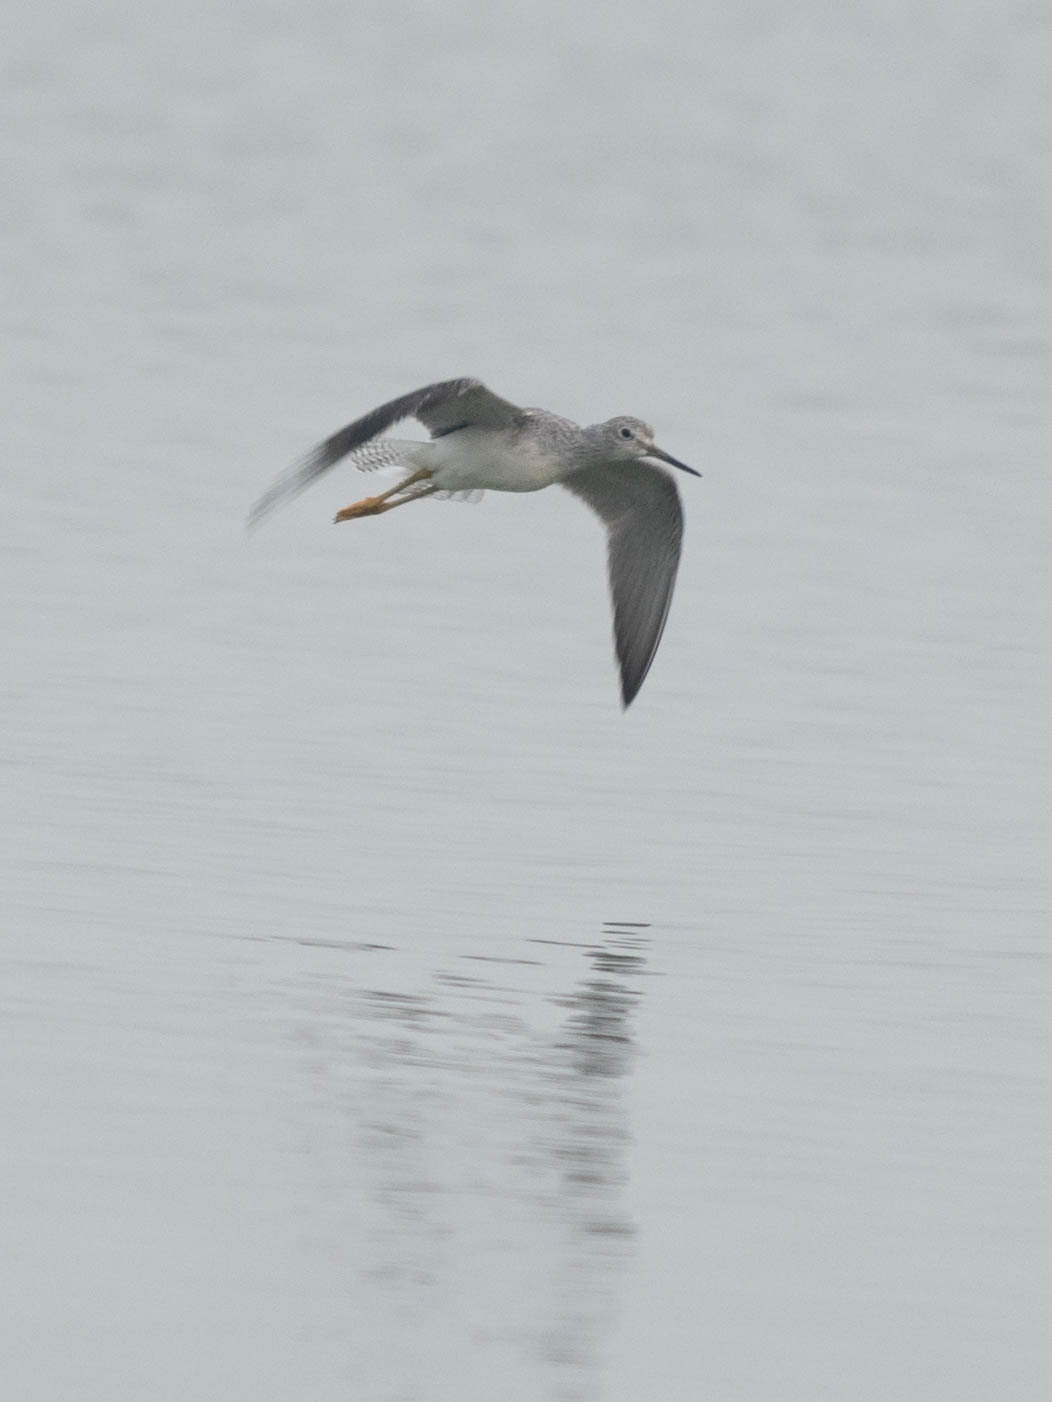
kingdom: Animalia
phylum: Chordata
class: Aves
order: Charadriiformes
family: Scolopacidae
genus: Tringa
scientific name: Tringa melanoleuca
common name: Greater yellowlegs
